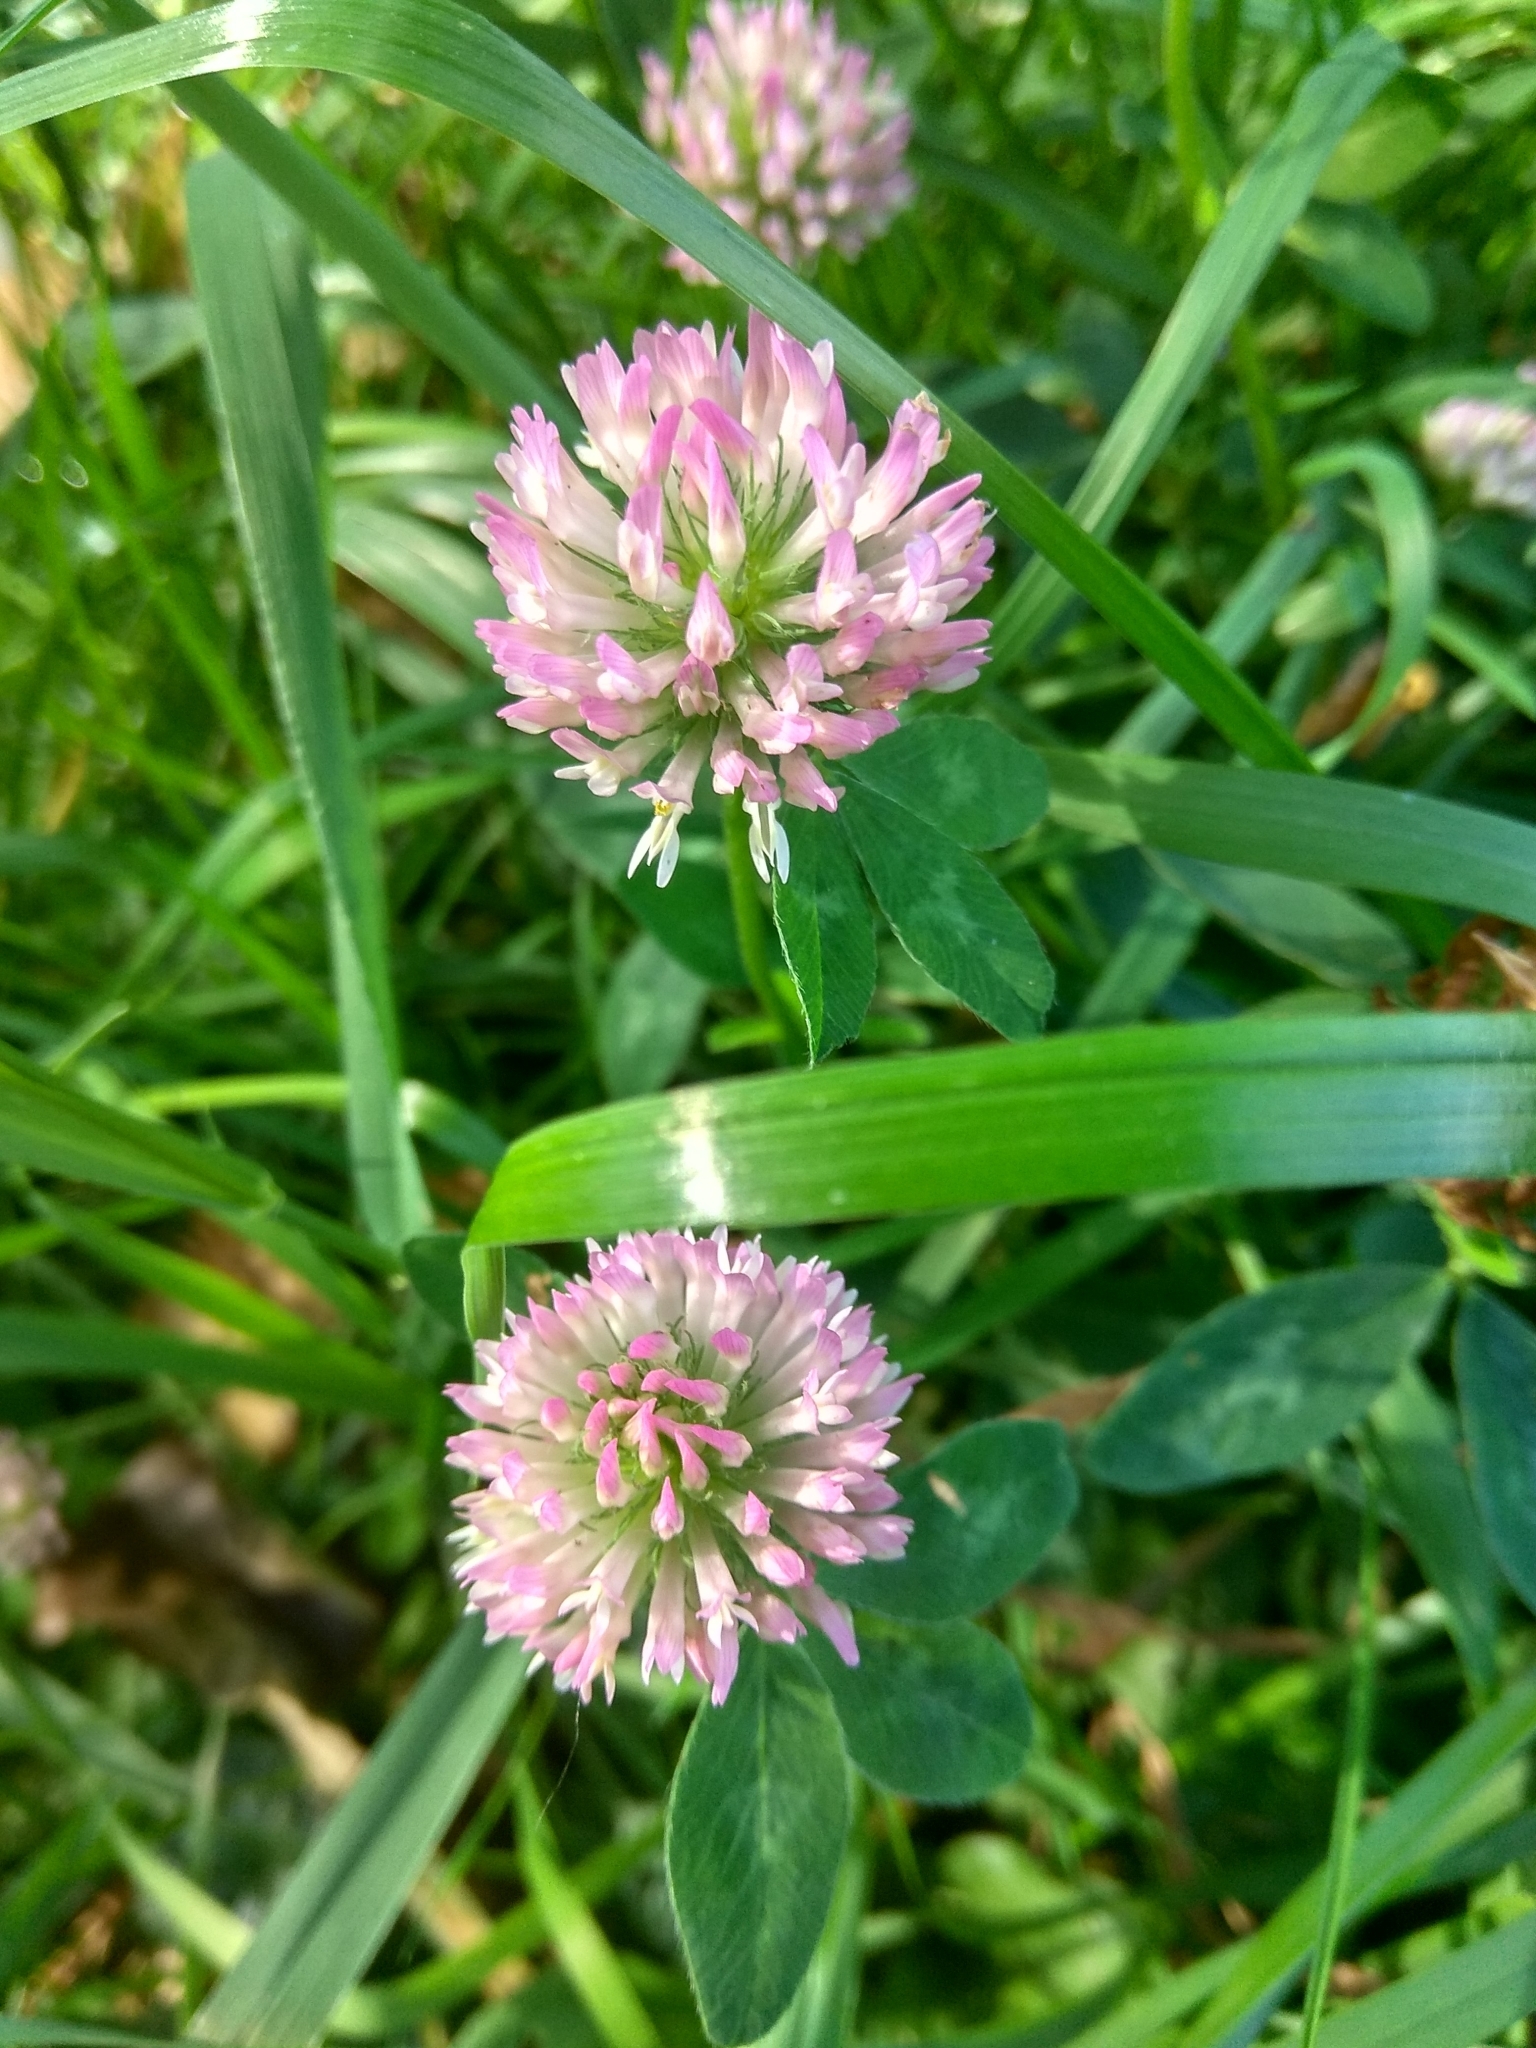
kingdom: Plantae
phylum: Tracheophyta
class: Magnoliopsida
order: Fabales
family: Fabaceae
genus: Trifolium
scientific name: Trifolium pratense
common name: Red clover
